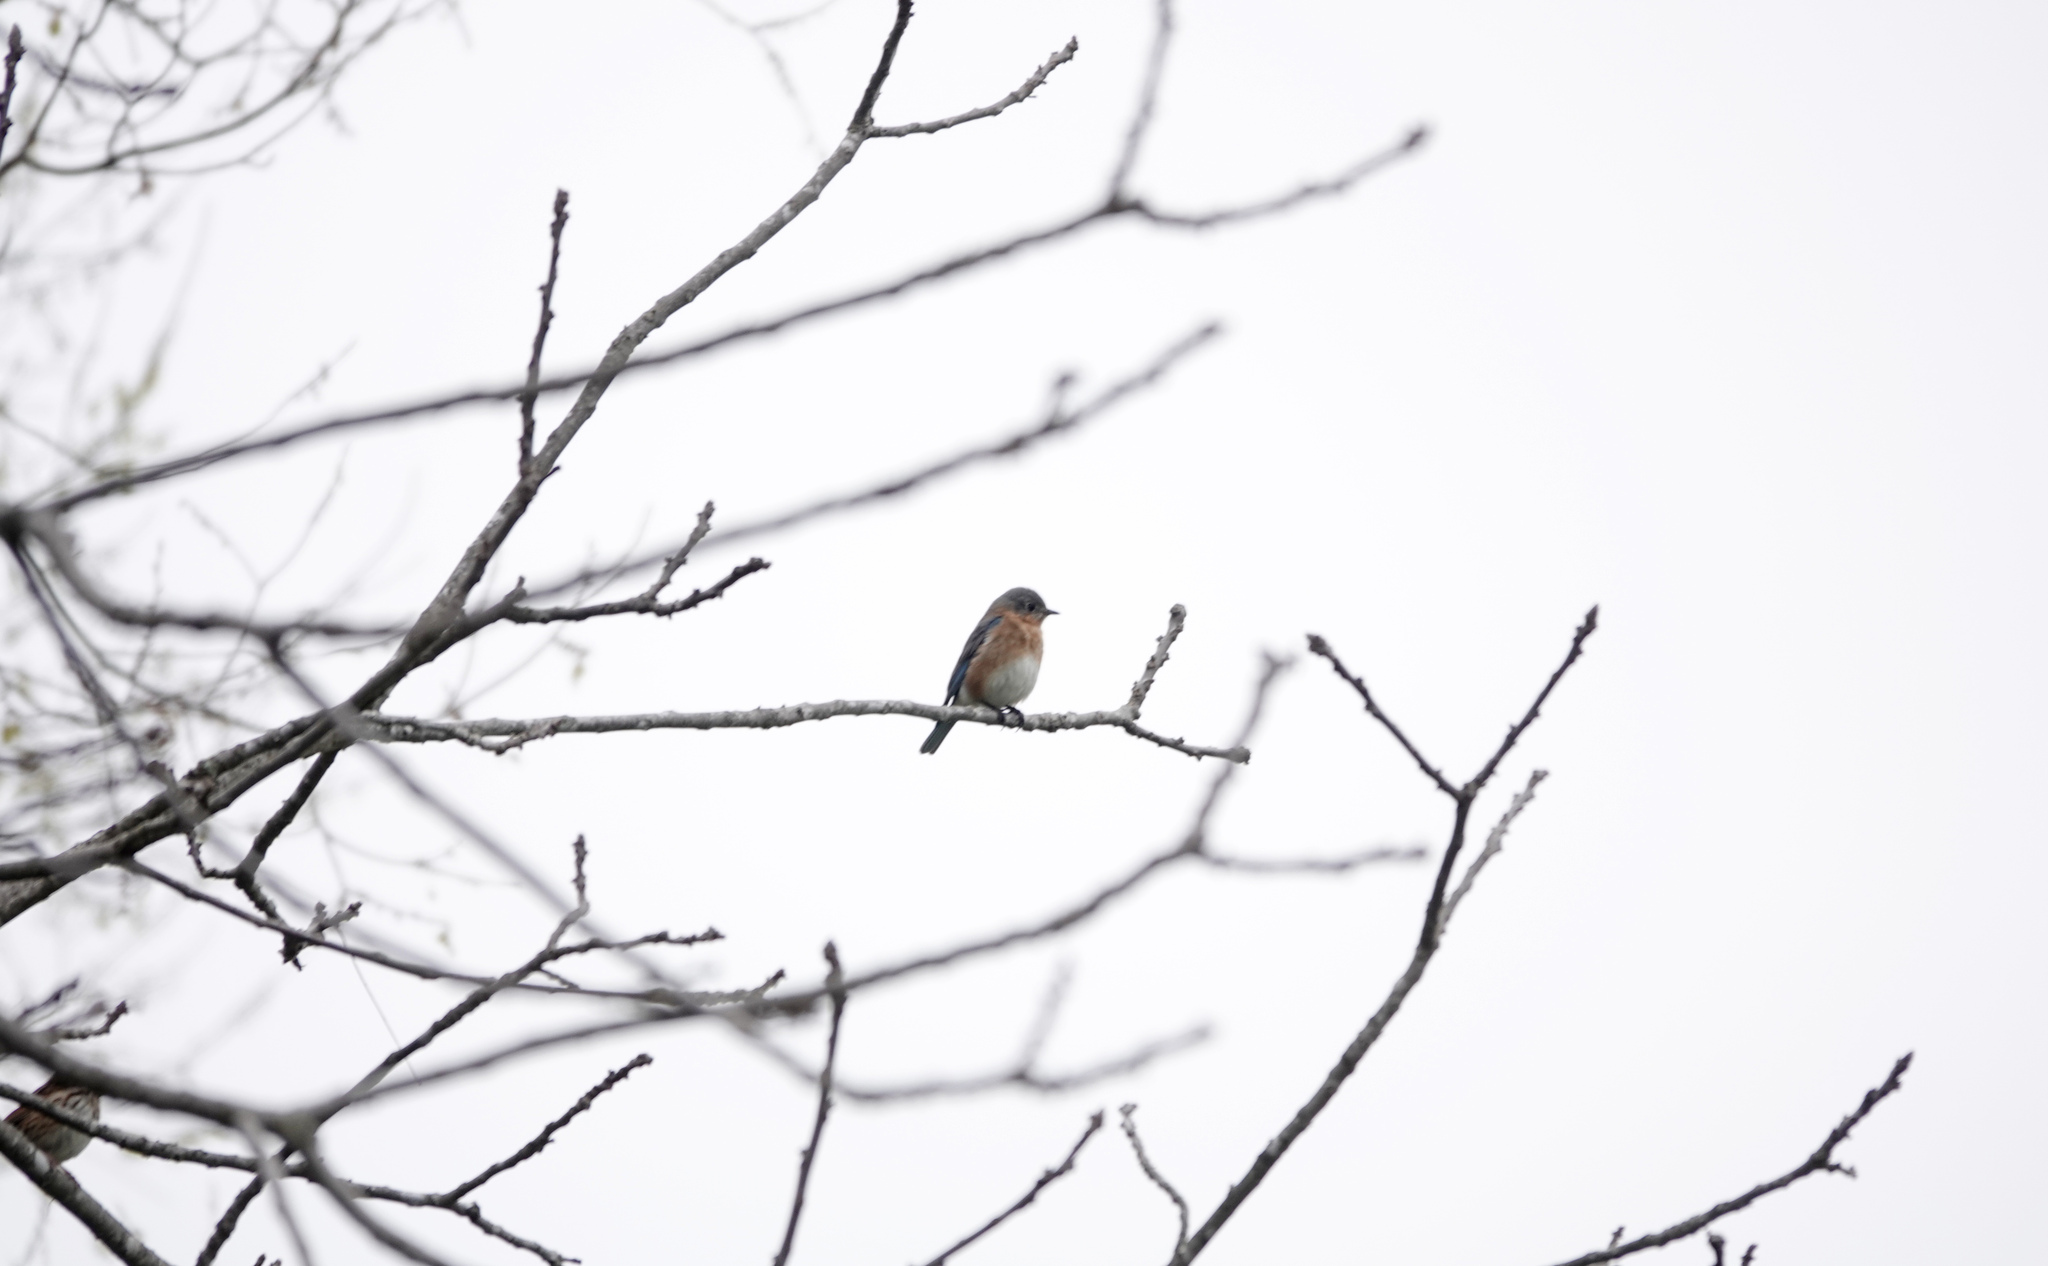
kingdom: Animalia
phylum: Chordata
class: Aves
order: Passeriformes
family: Turdidae
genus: Sialia
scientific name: Sialia sialis
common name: Eastern bluebird
